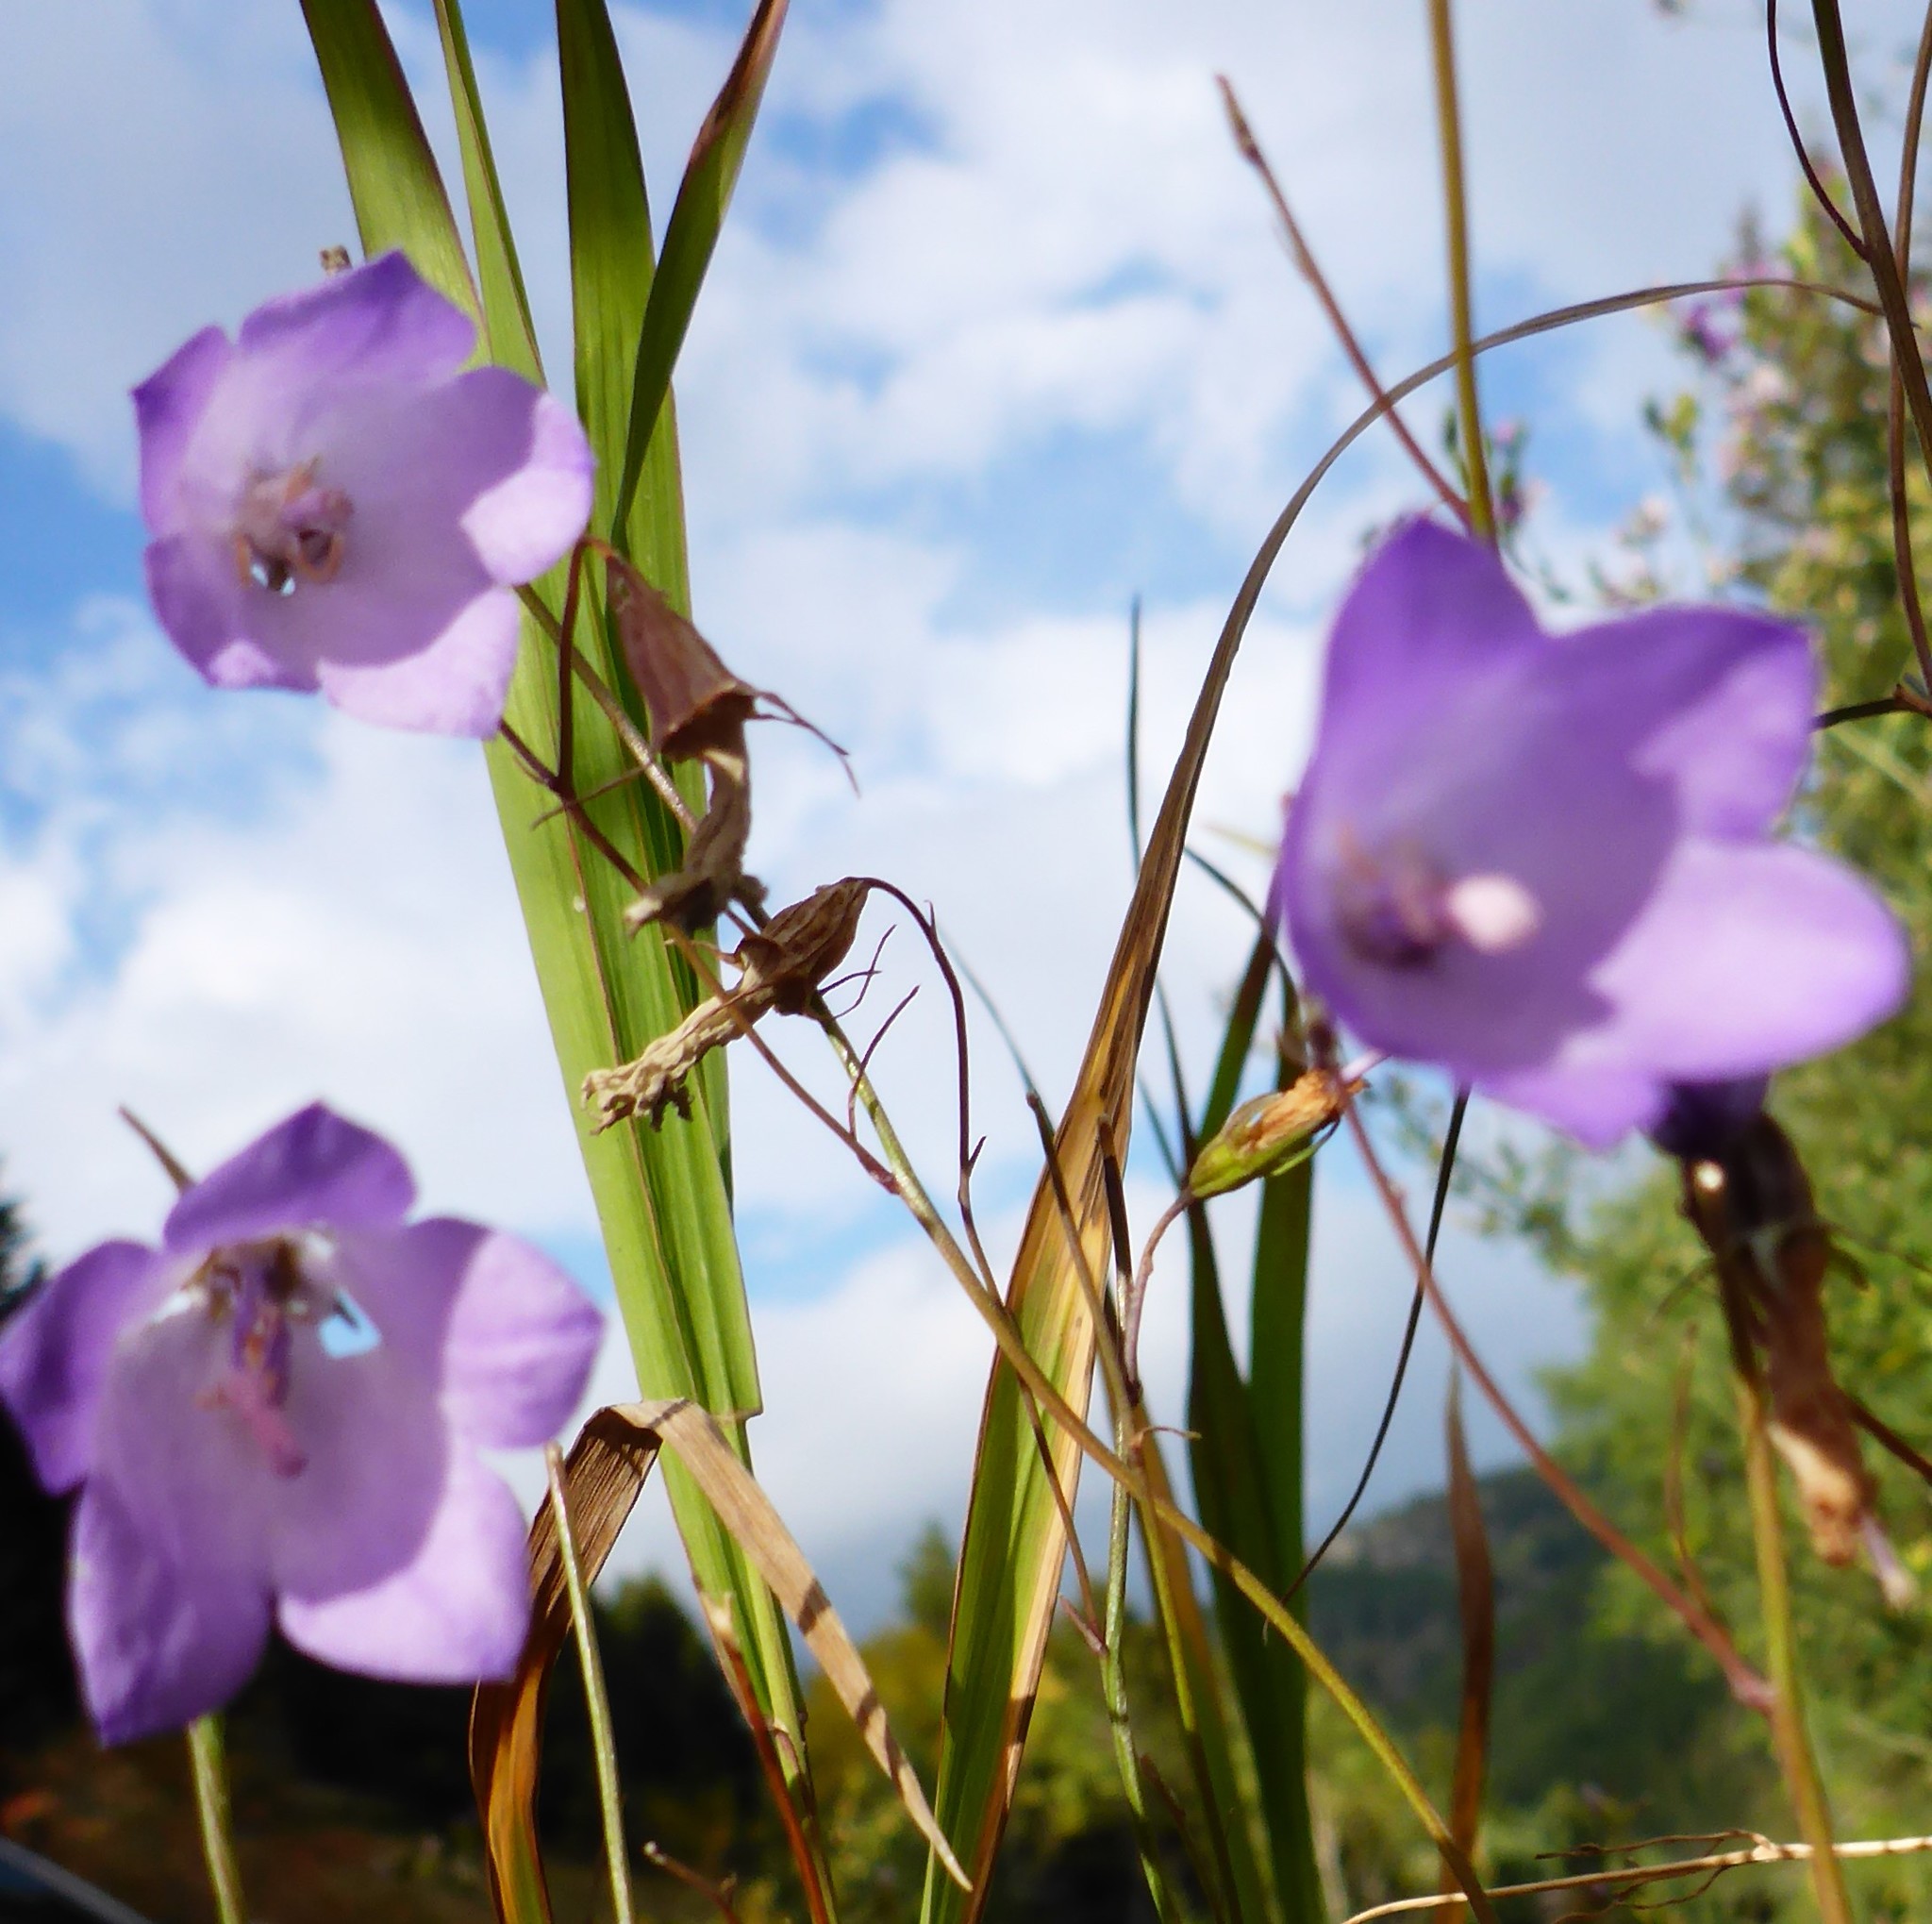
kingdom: Plantae
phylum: Tracheophyta
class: Magnoliopsida
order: Asterales
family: Campanulaceae
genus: Campanula
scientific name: Campanula alaskana
